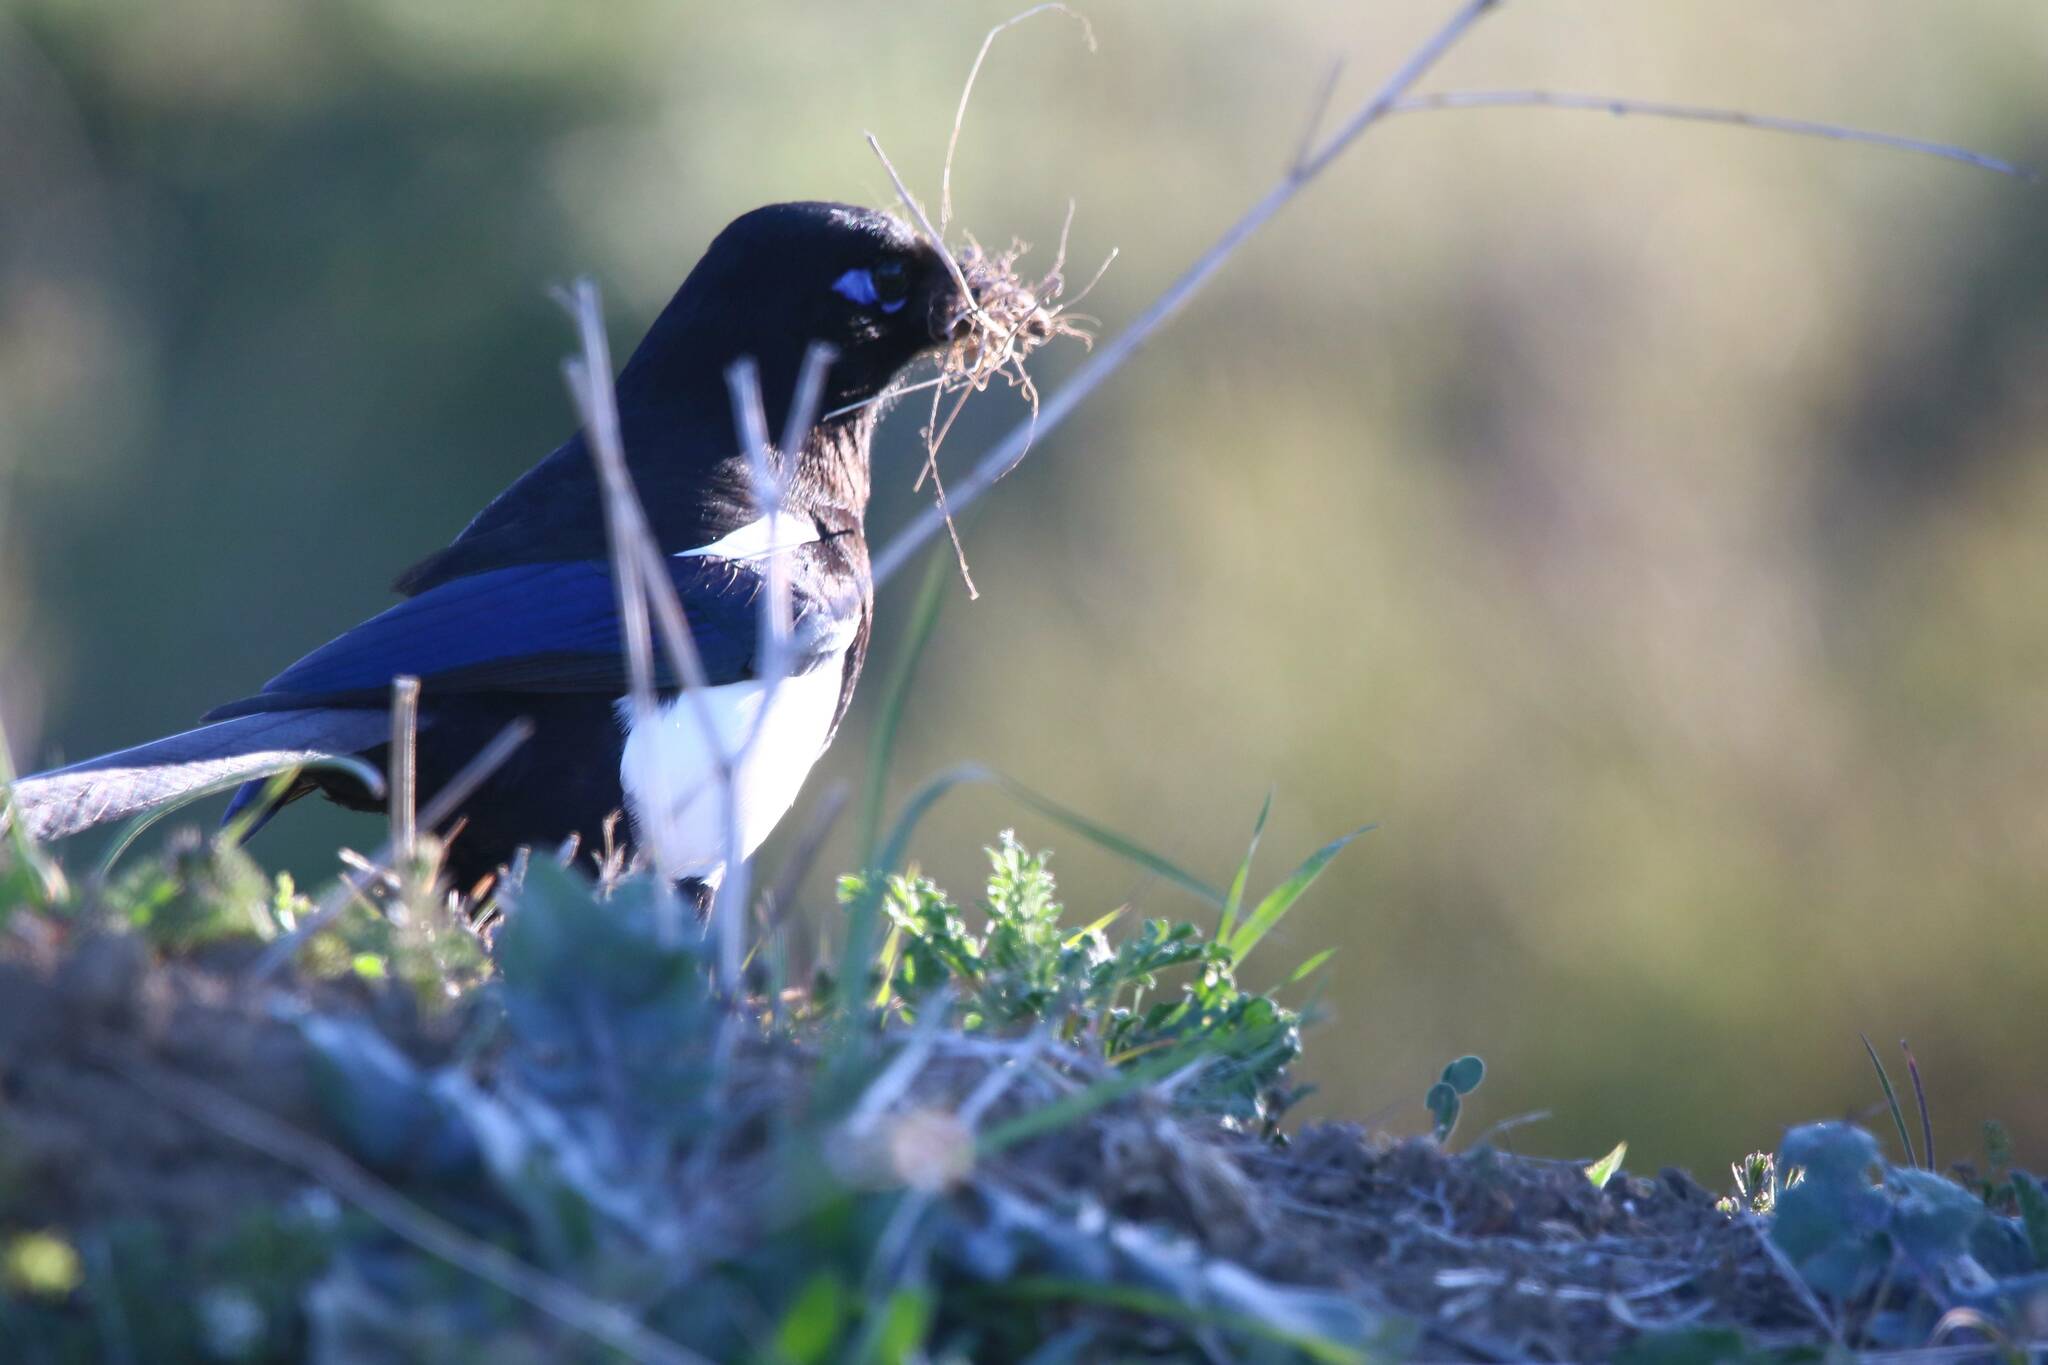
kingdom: Animalia
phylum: Chordata
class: Aves
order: Passeriformes
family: Corvidae
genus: Pica
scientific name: Pica mauritanica
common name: Maghreb magpie
